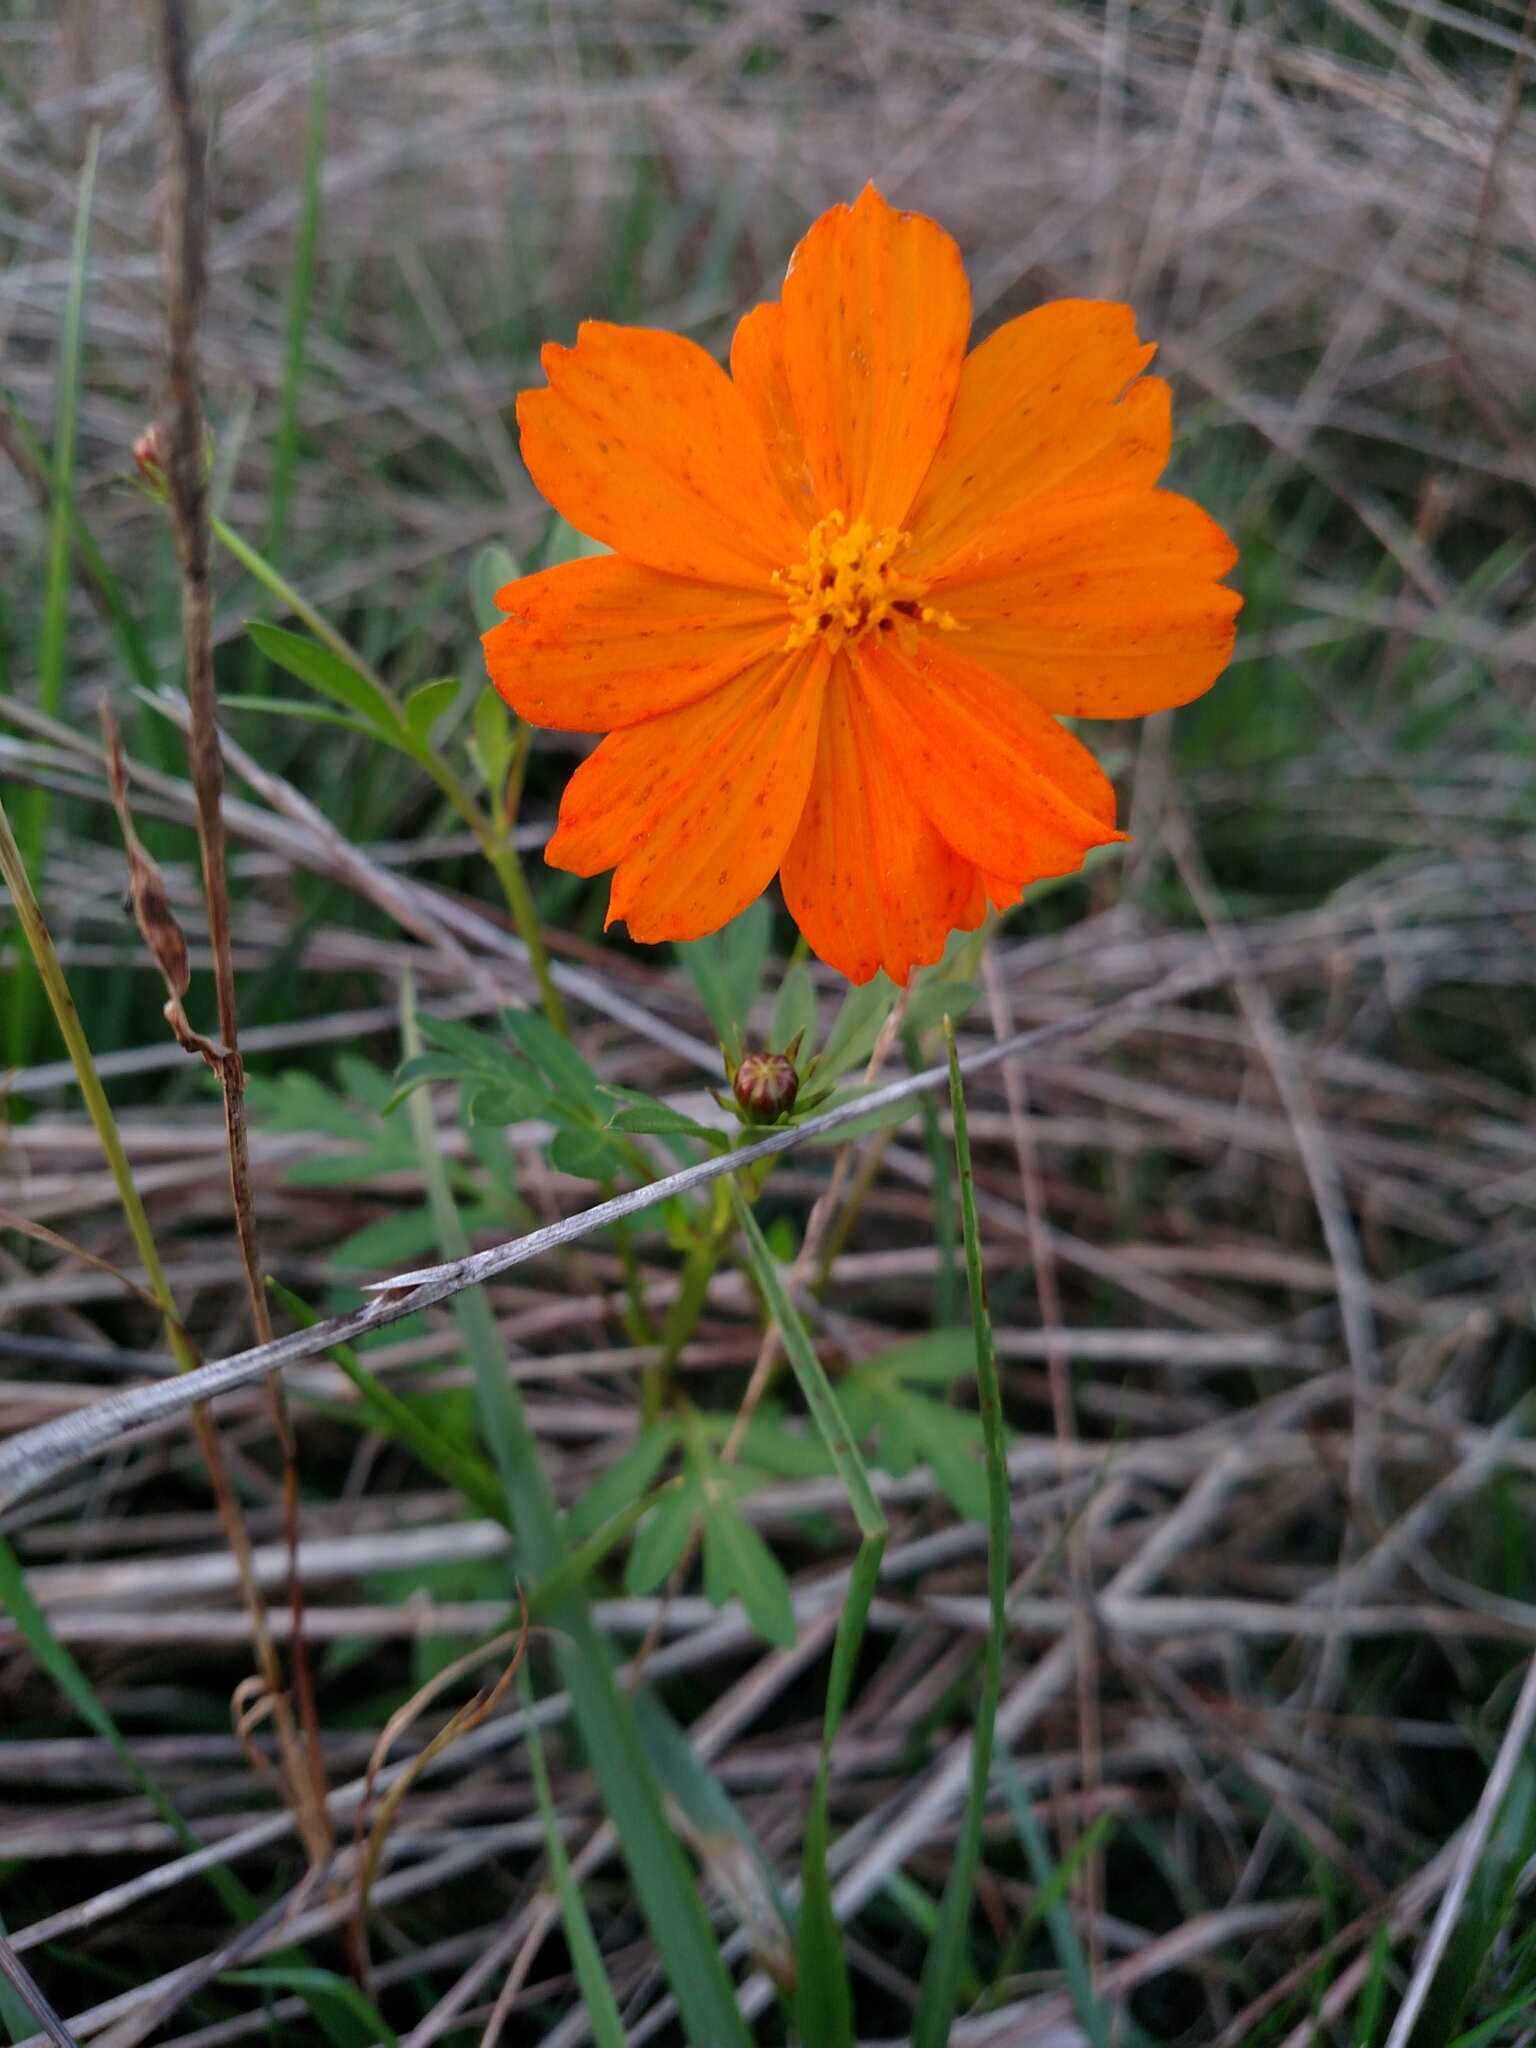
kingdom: Plantae
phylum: Tracheophyta
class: Magnoliopsida
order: Asterales
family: Asteraceae
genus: Cosmos
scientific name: Cosmos sulphureus
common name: Sulphur cosmos
